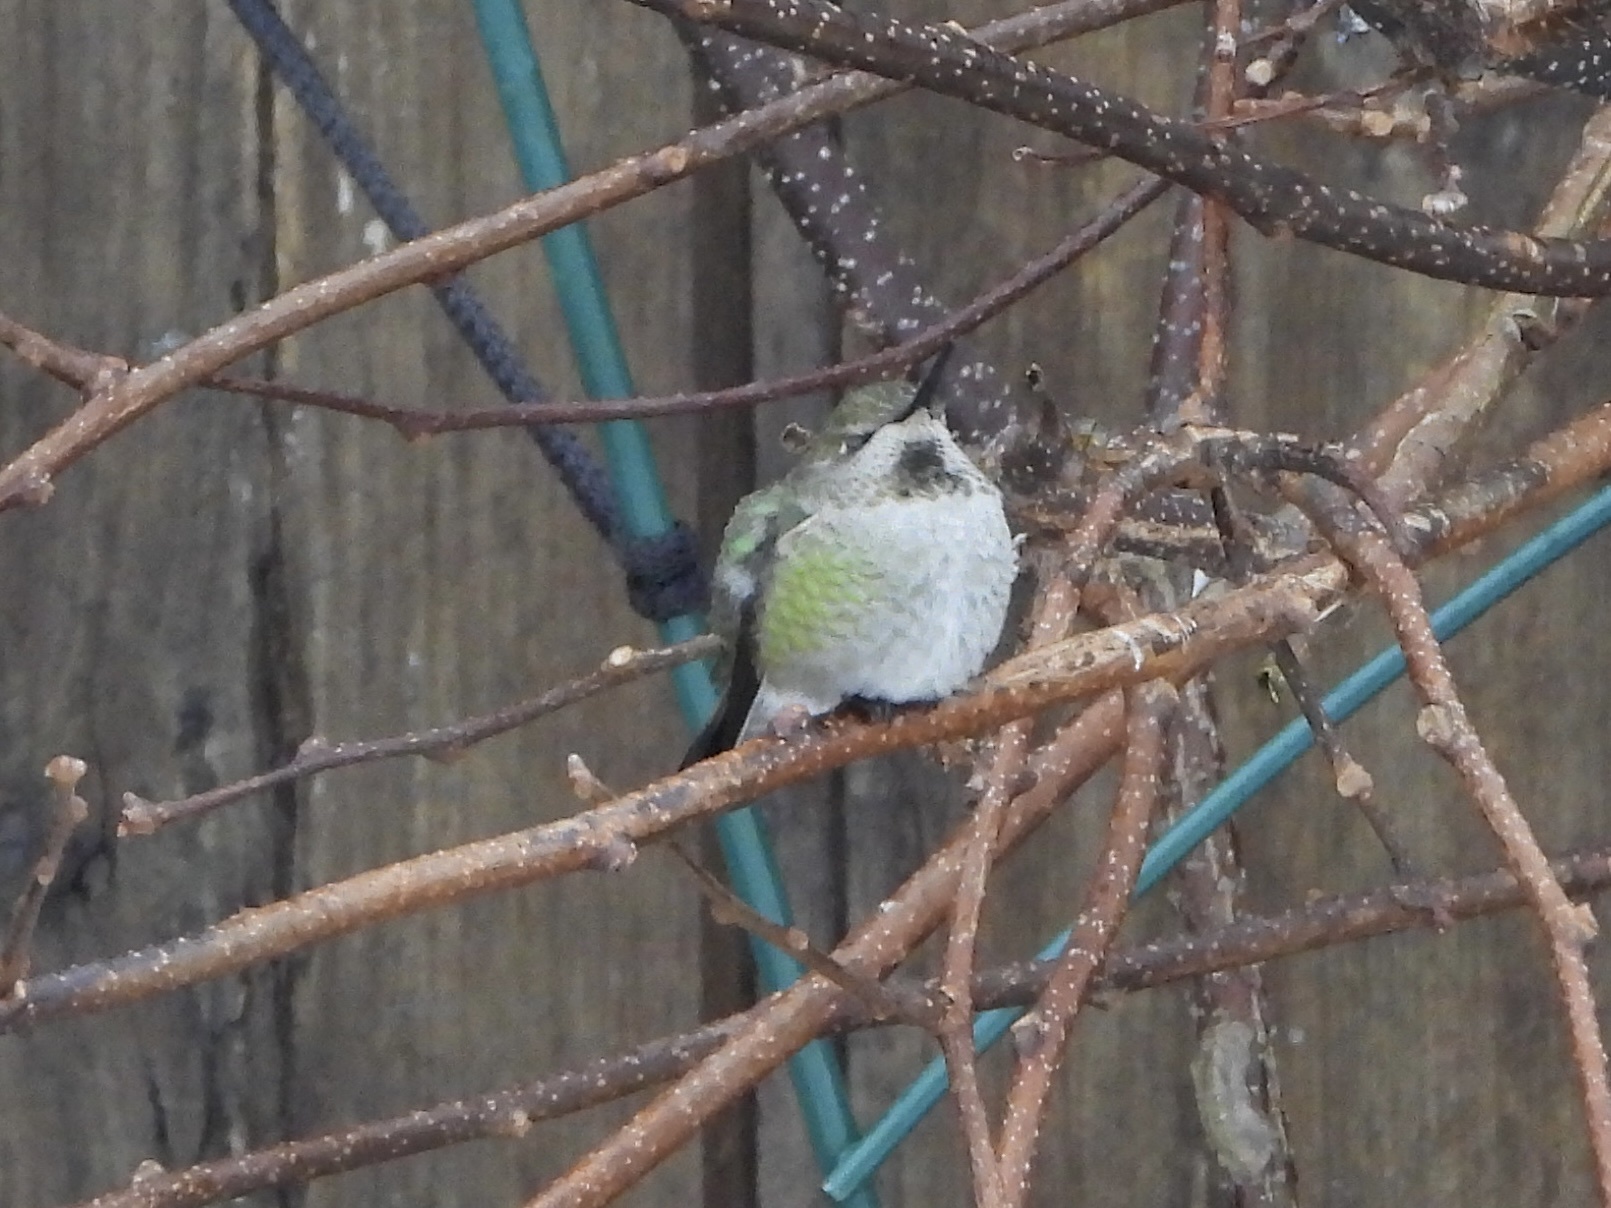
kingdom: Animalia
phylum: Chordata
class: Aves
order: Apodiformes
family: Trochilidae
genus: Calypte
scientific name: Calypte anna
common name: Anna's hummingbird
